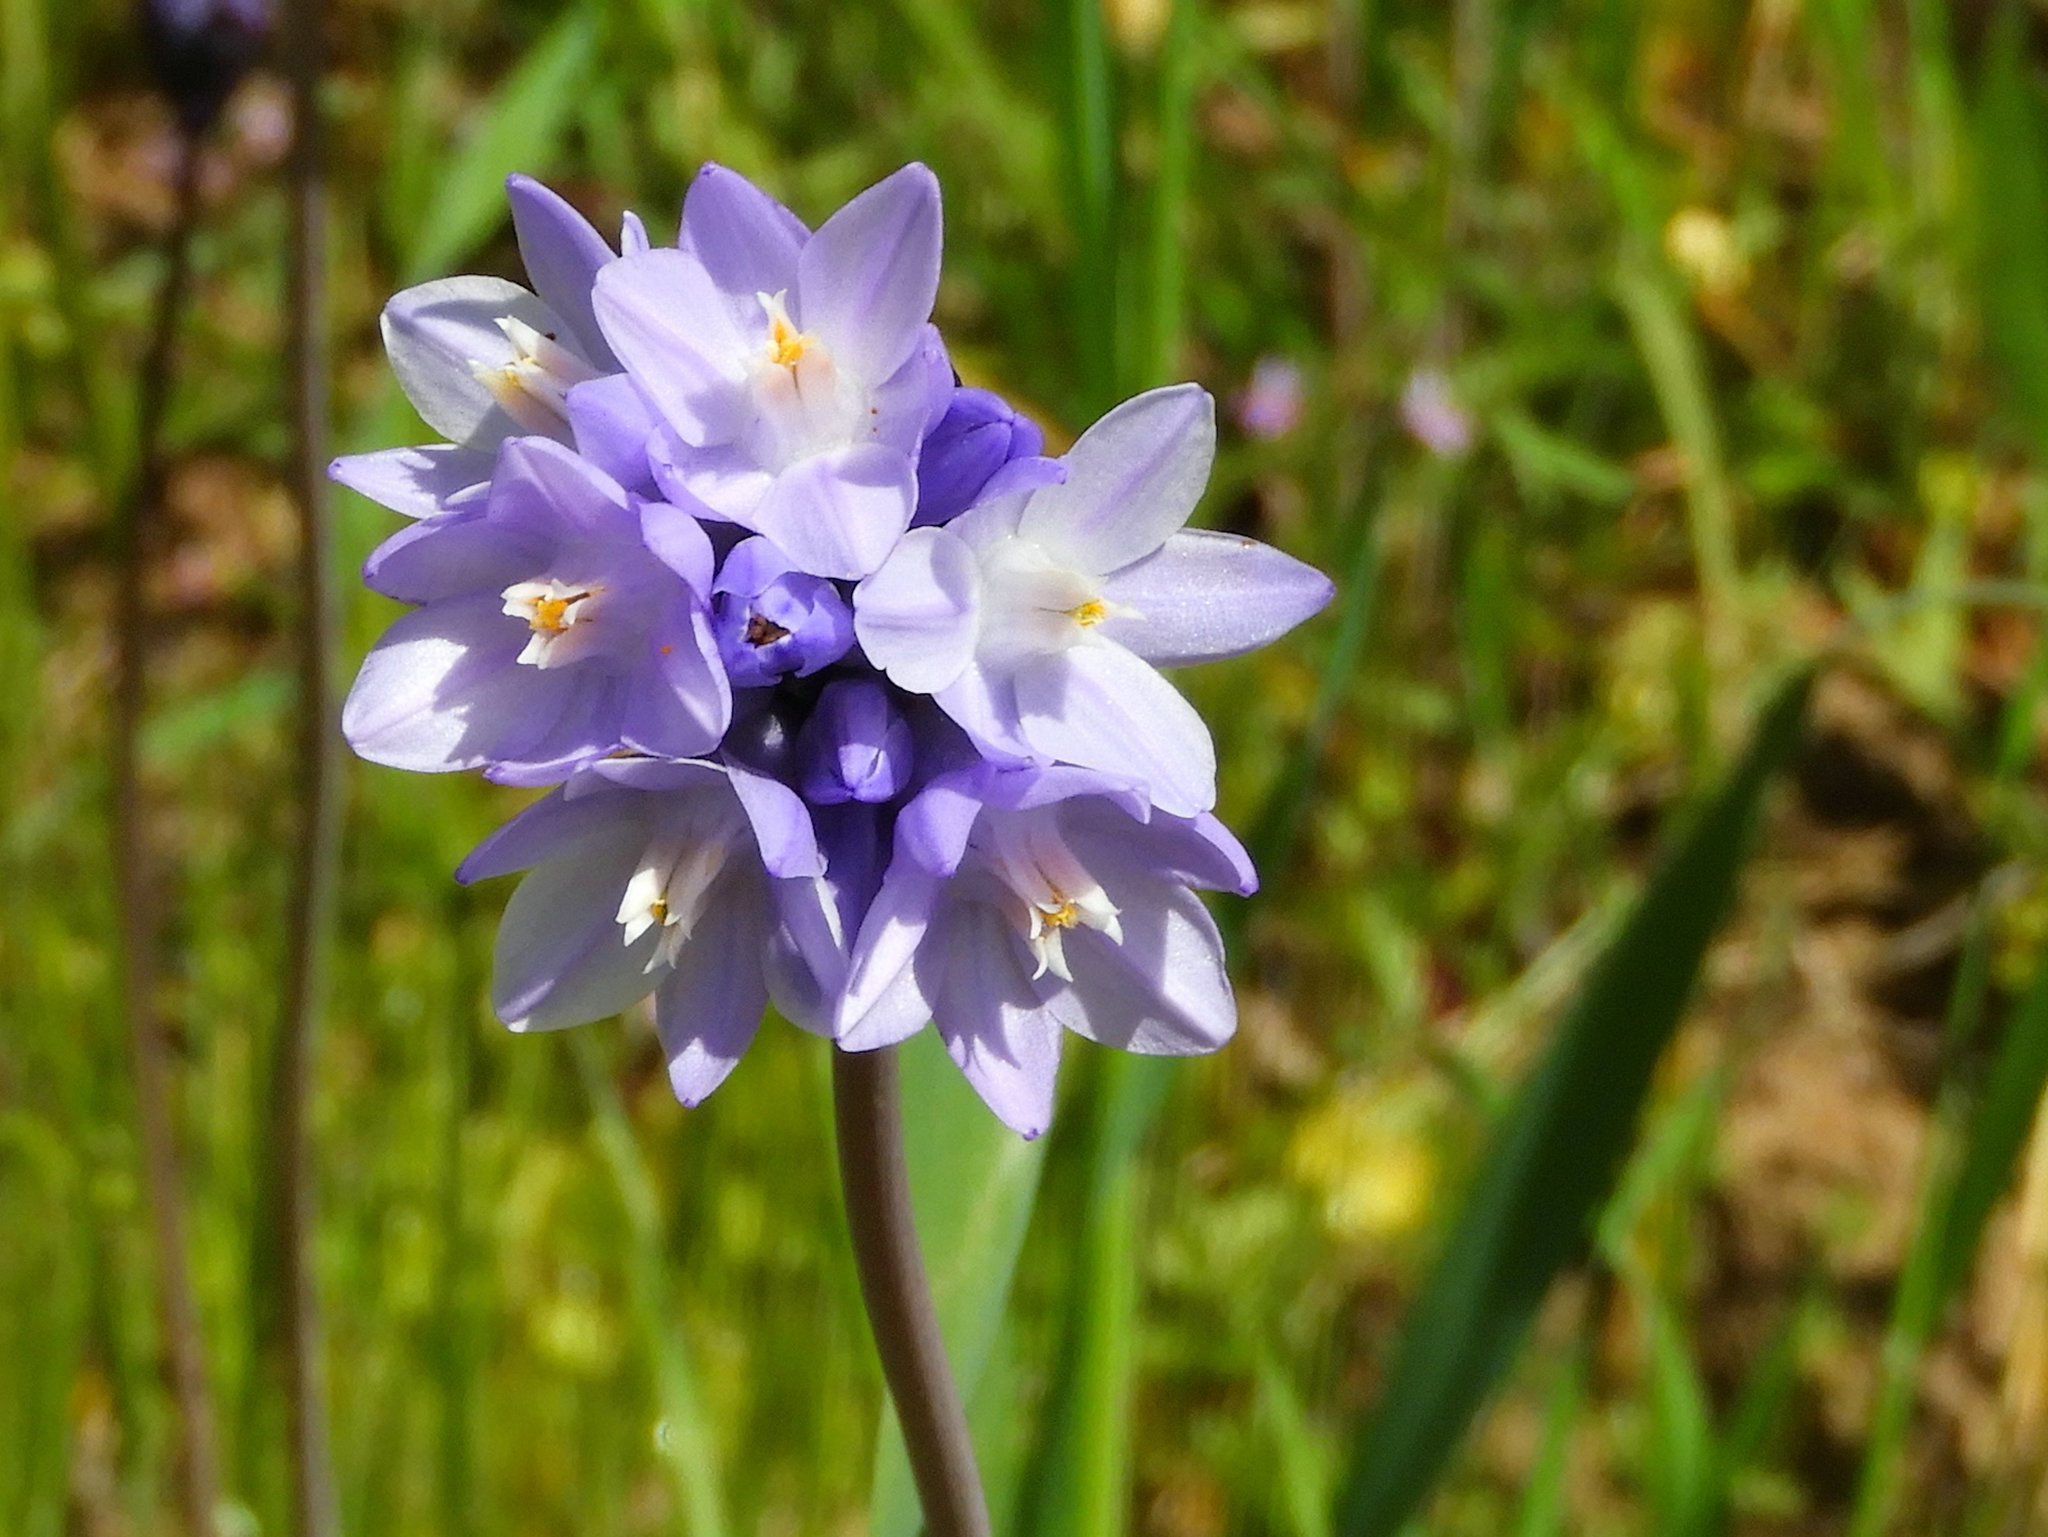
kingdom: Plantae
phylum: Tracheophyta
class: Liliopsida
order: Asparagales
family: Asparagaceae
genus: Dipterostemon
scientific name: Dipterostemon capitatus
